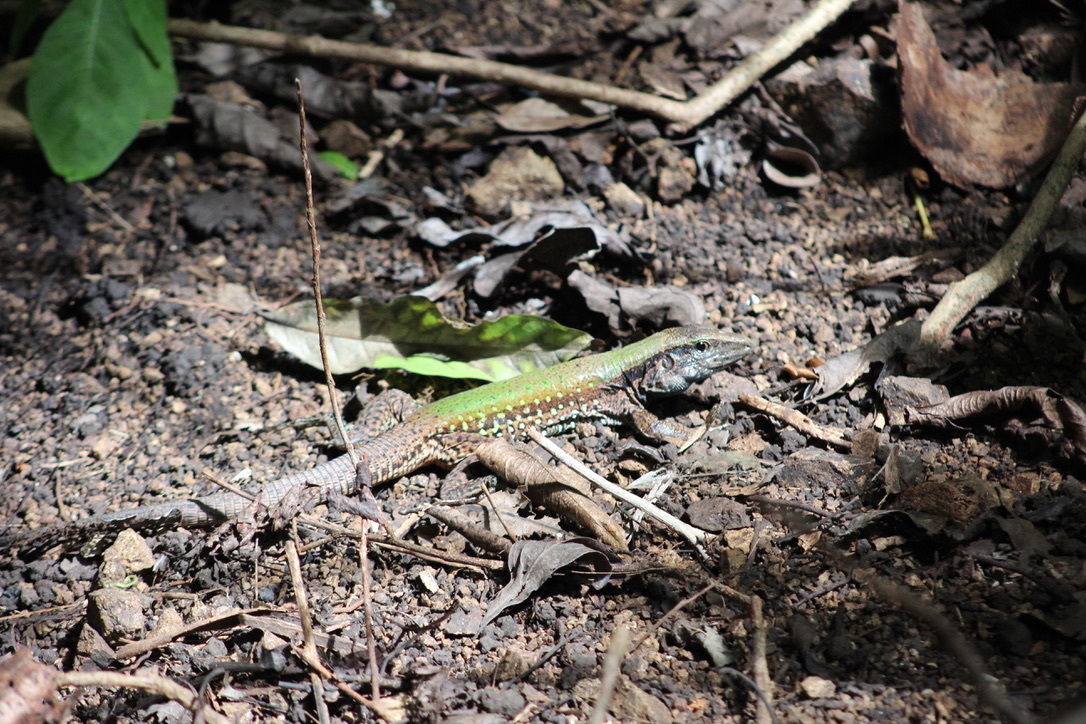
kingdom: Animalia
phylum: Chordata
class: Squamata
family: Teiidae
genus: Ameiva
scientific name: Ameiva atrigularis
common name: Venezuelan ameiva
